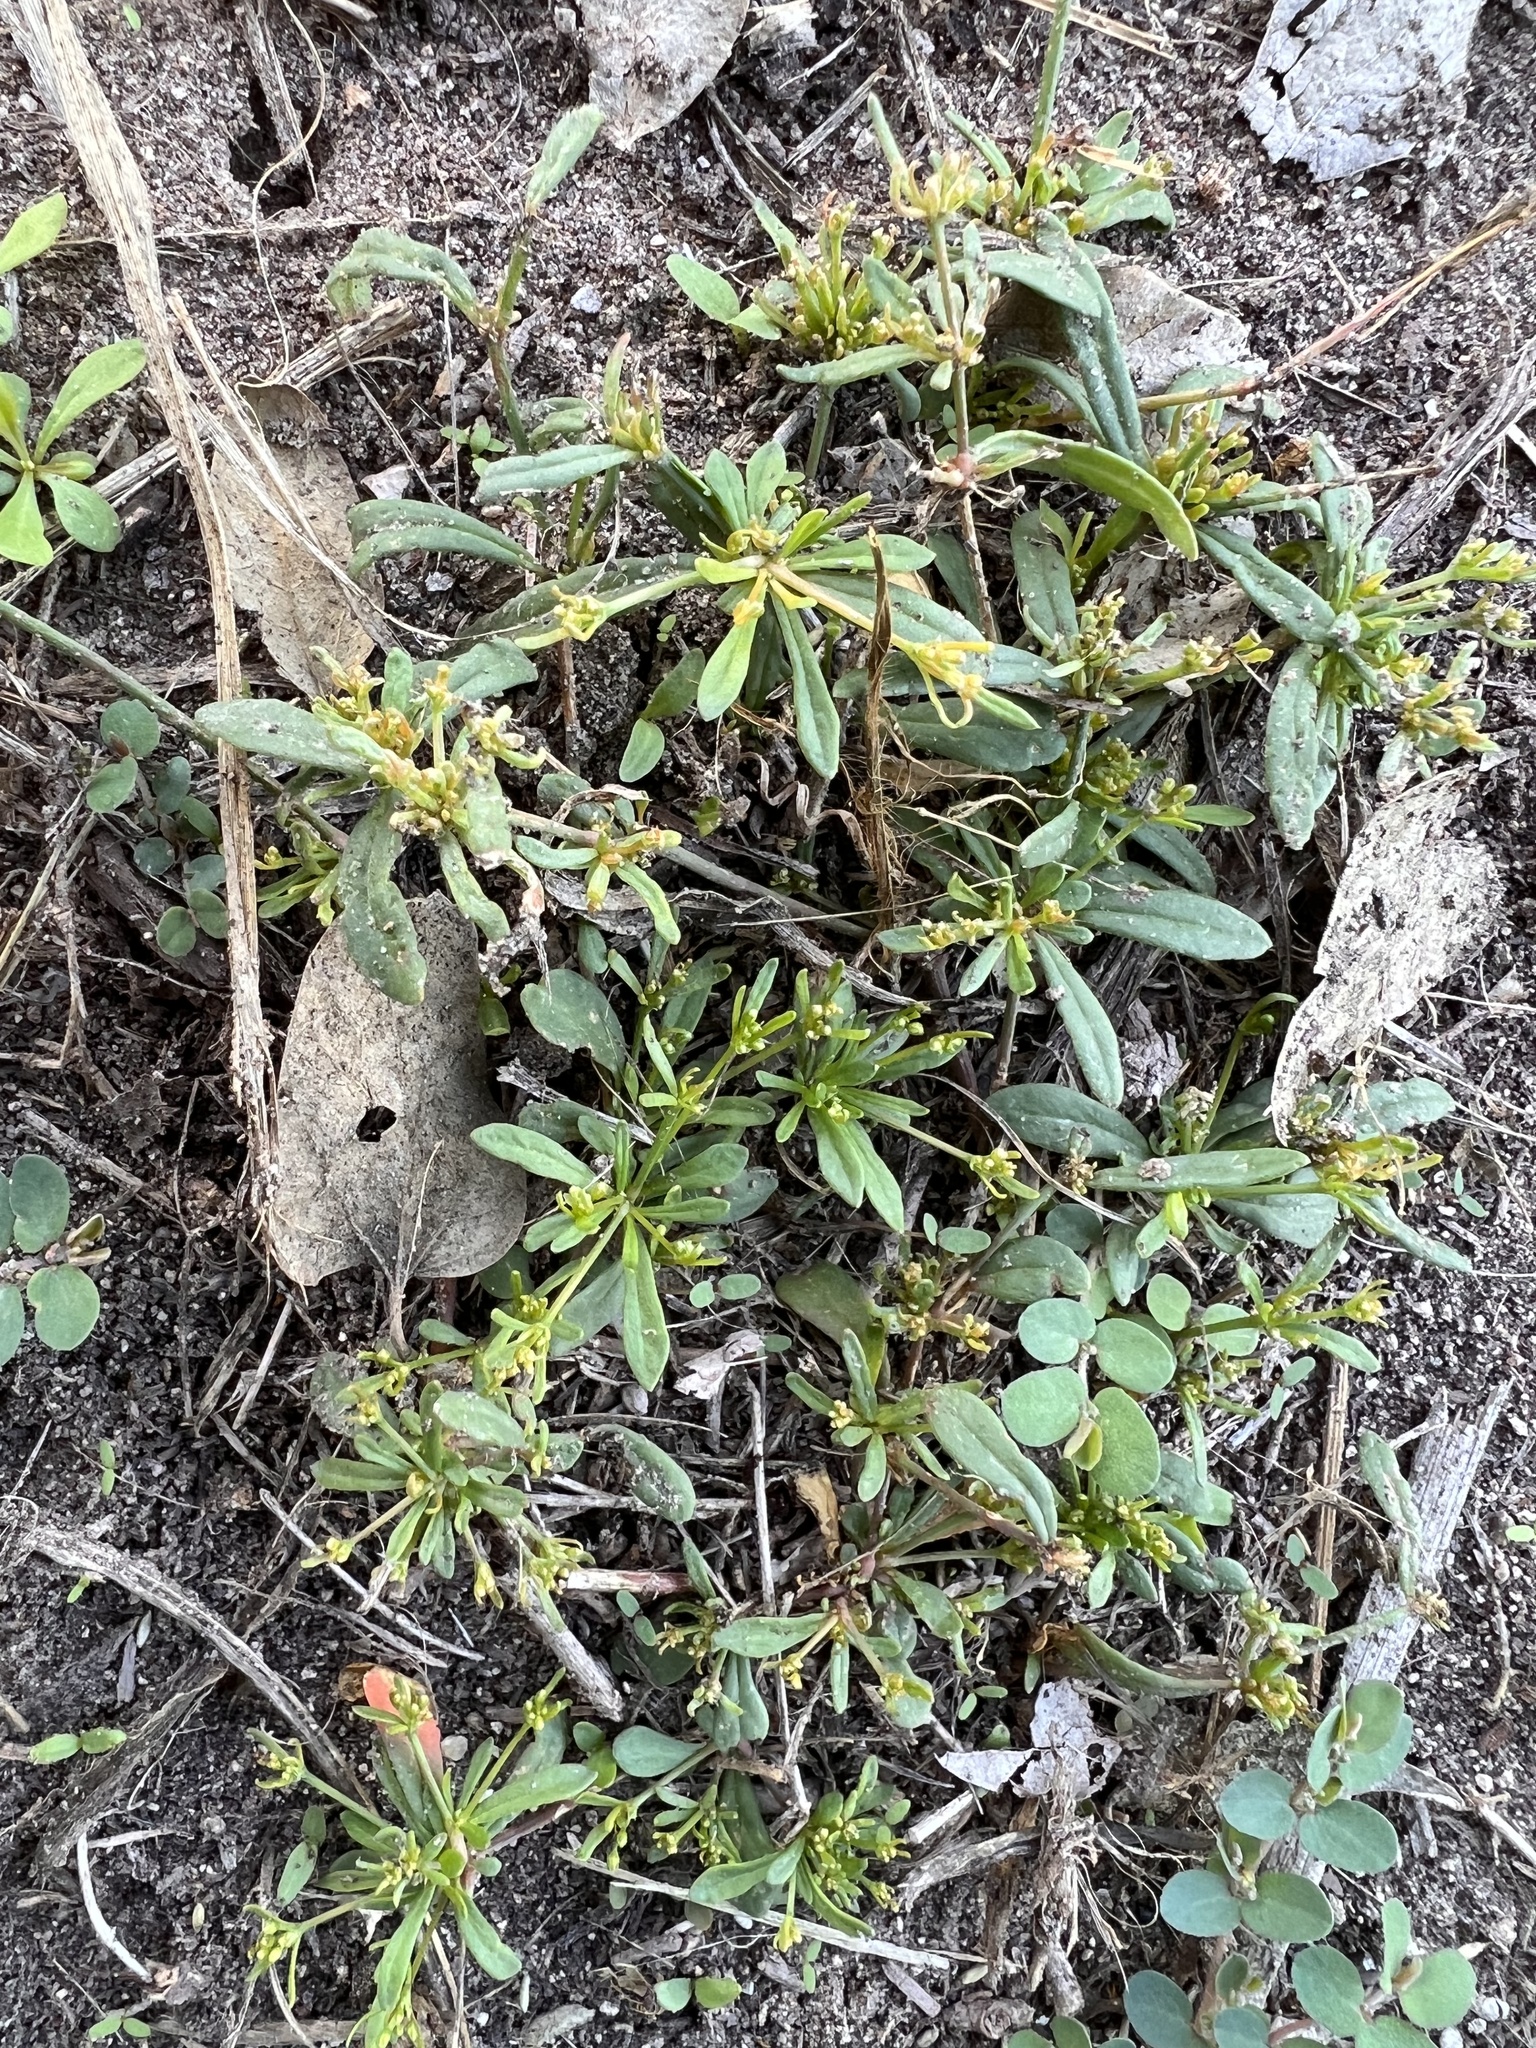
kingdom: Plantae
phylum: Tracheophyta
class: Magnoliopsida
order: Caryophyllales
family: Molluginaceae
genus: Mollugo
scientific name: Mollugo verticillata
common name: Green carpetweed
